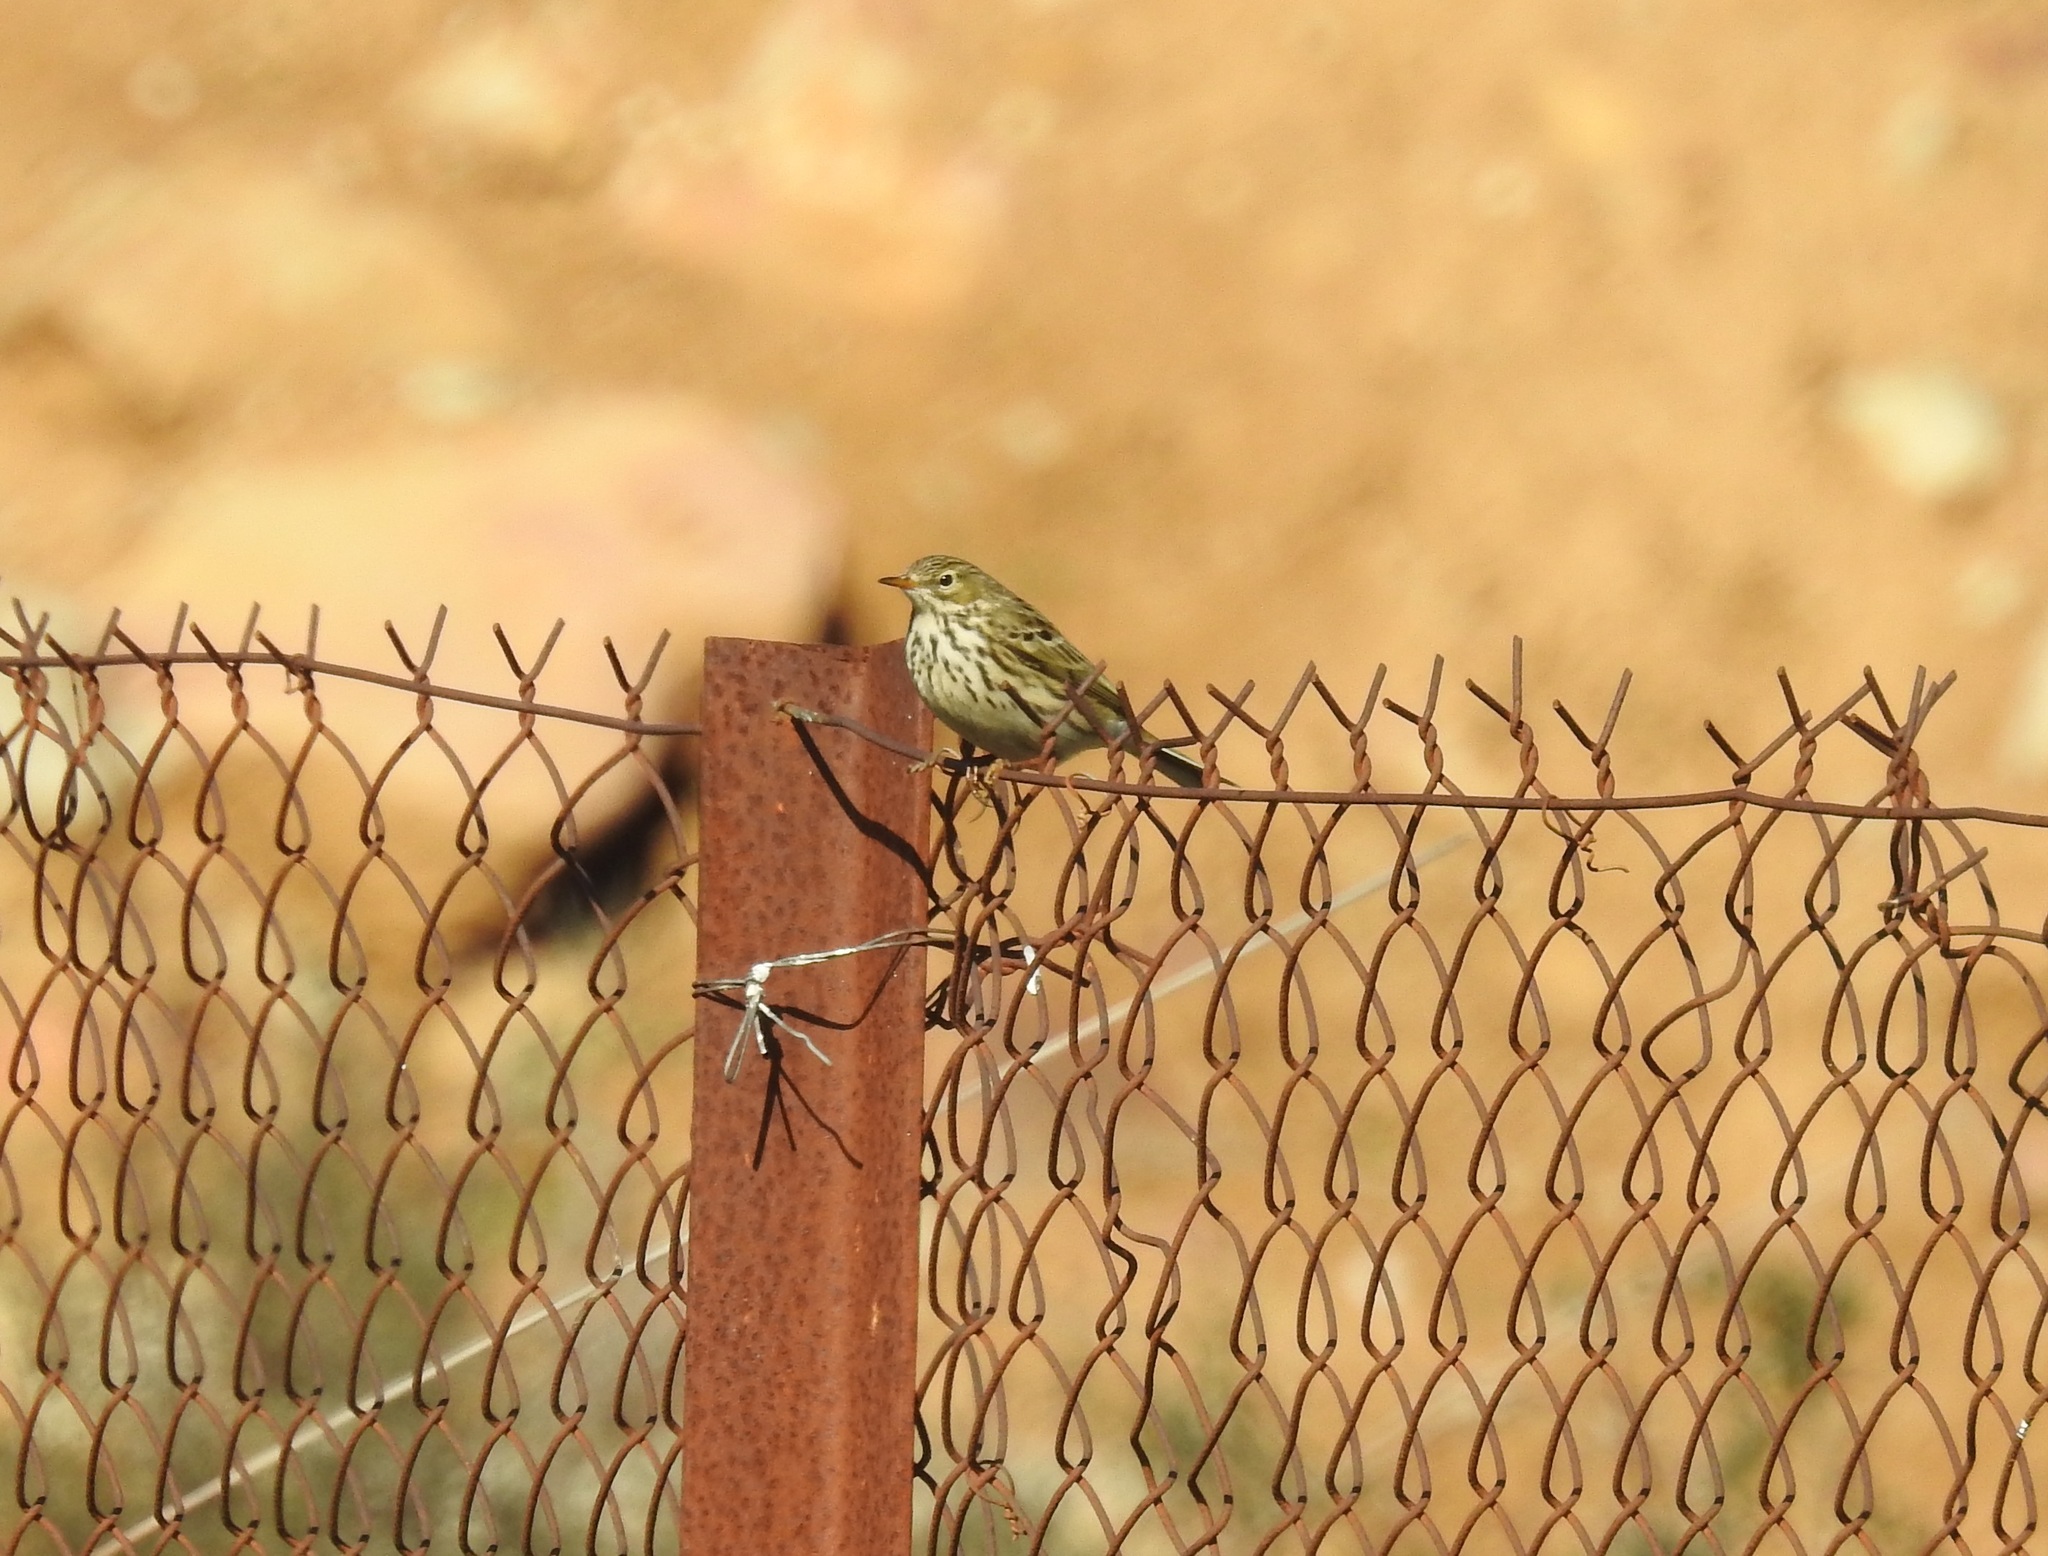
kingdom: Animalia
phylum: Chordata
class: Aves
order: Passeriformes
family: Motacillidae
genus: Anthus
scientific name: Anthus pratensis
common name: Meadow pipit
